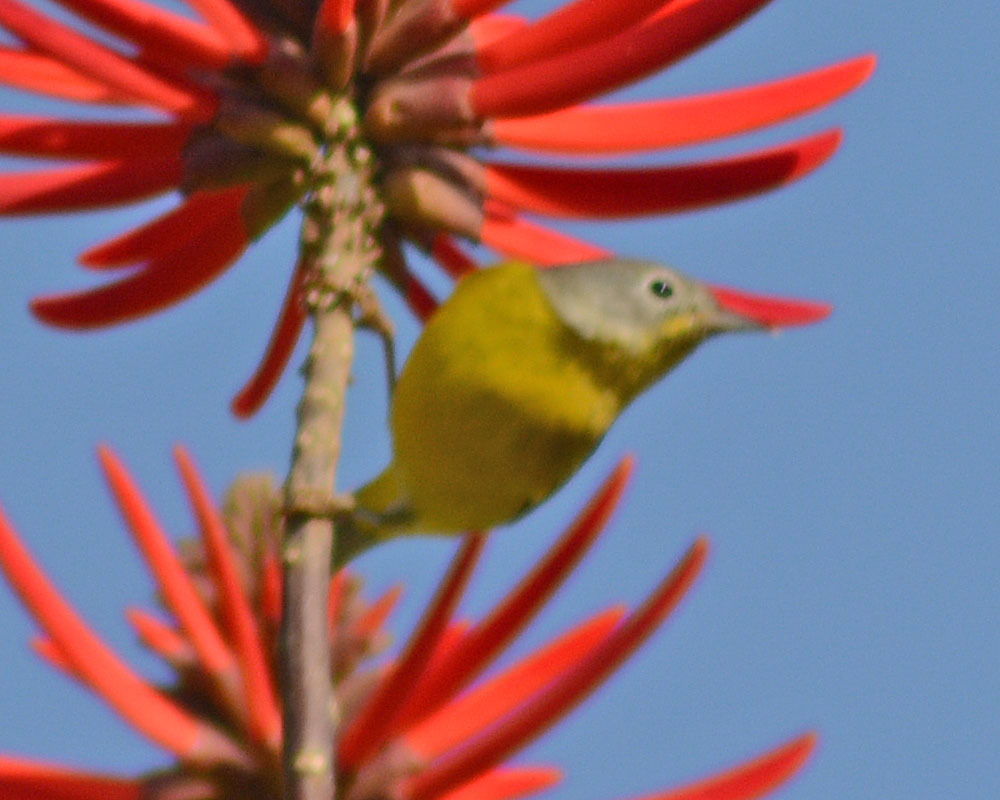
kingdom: Animalia
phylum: Chordata
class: Aves
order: Passeriformes
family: Parulidae
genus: Leiothlypis
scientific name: Leiothlypis ruficapilla
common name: Nashville warbler
